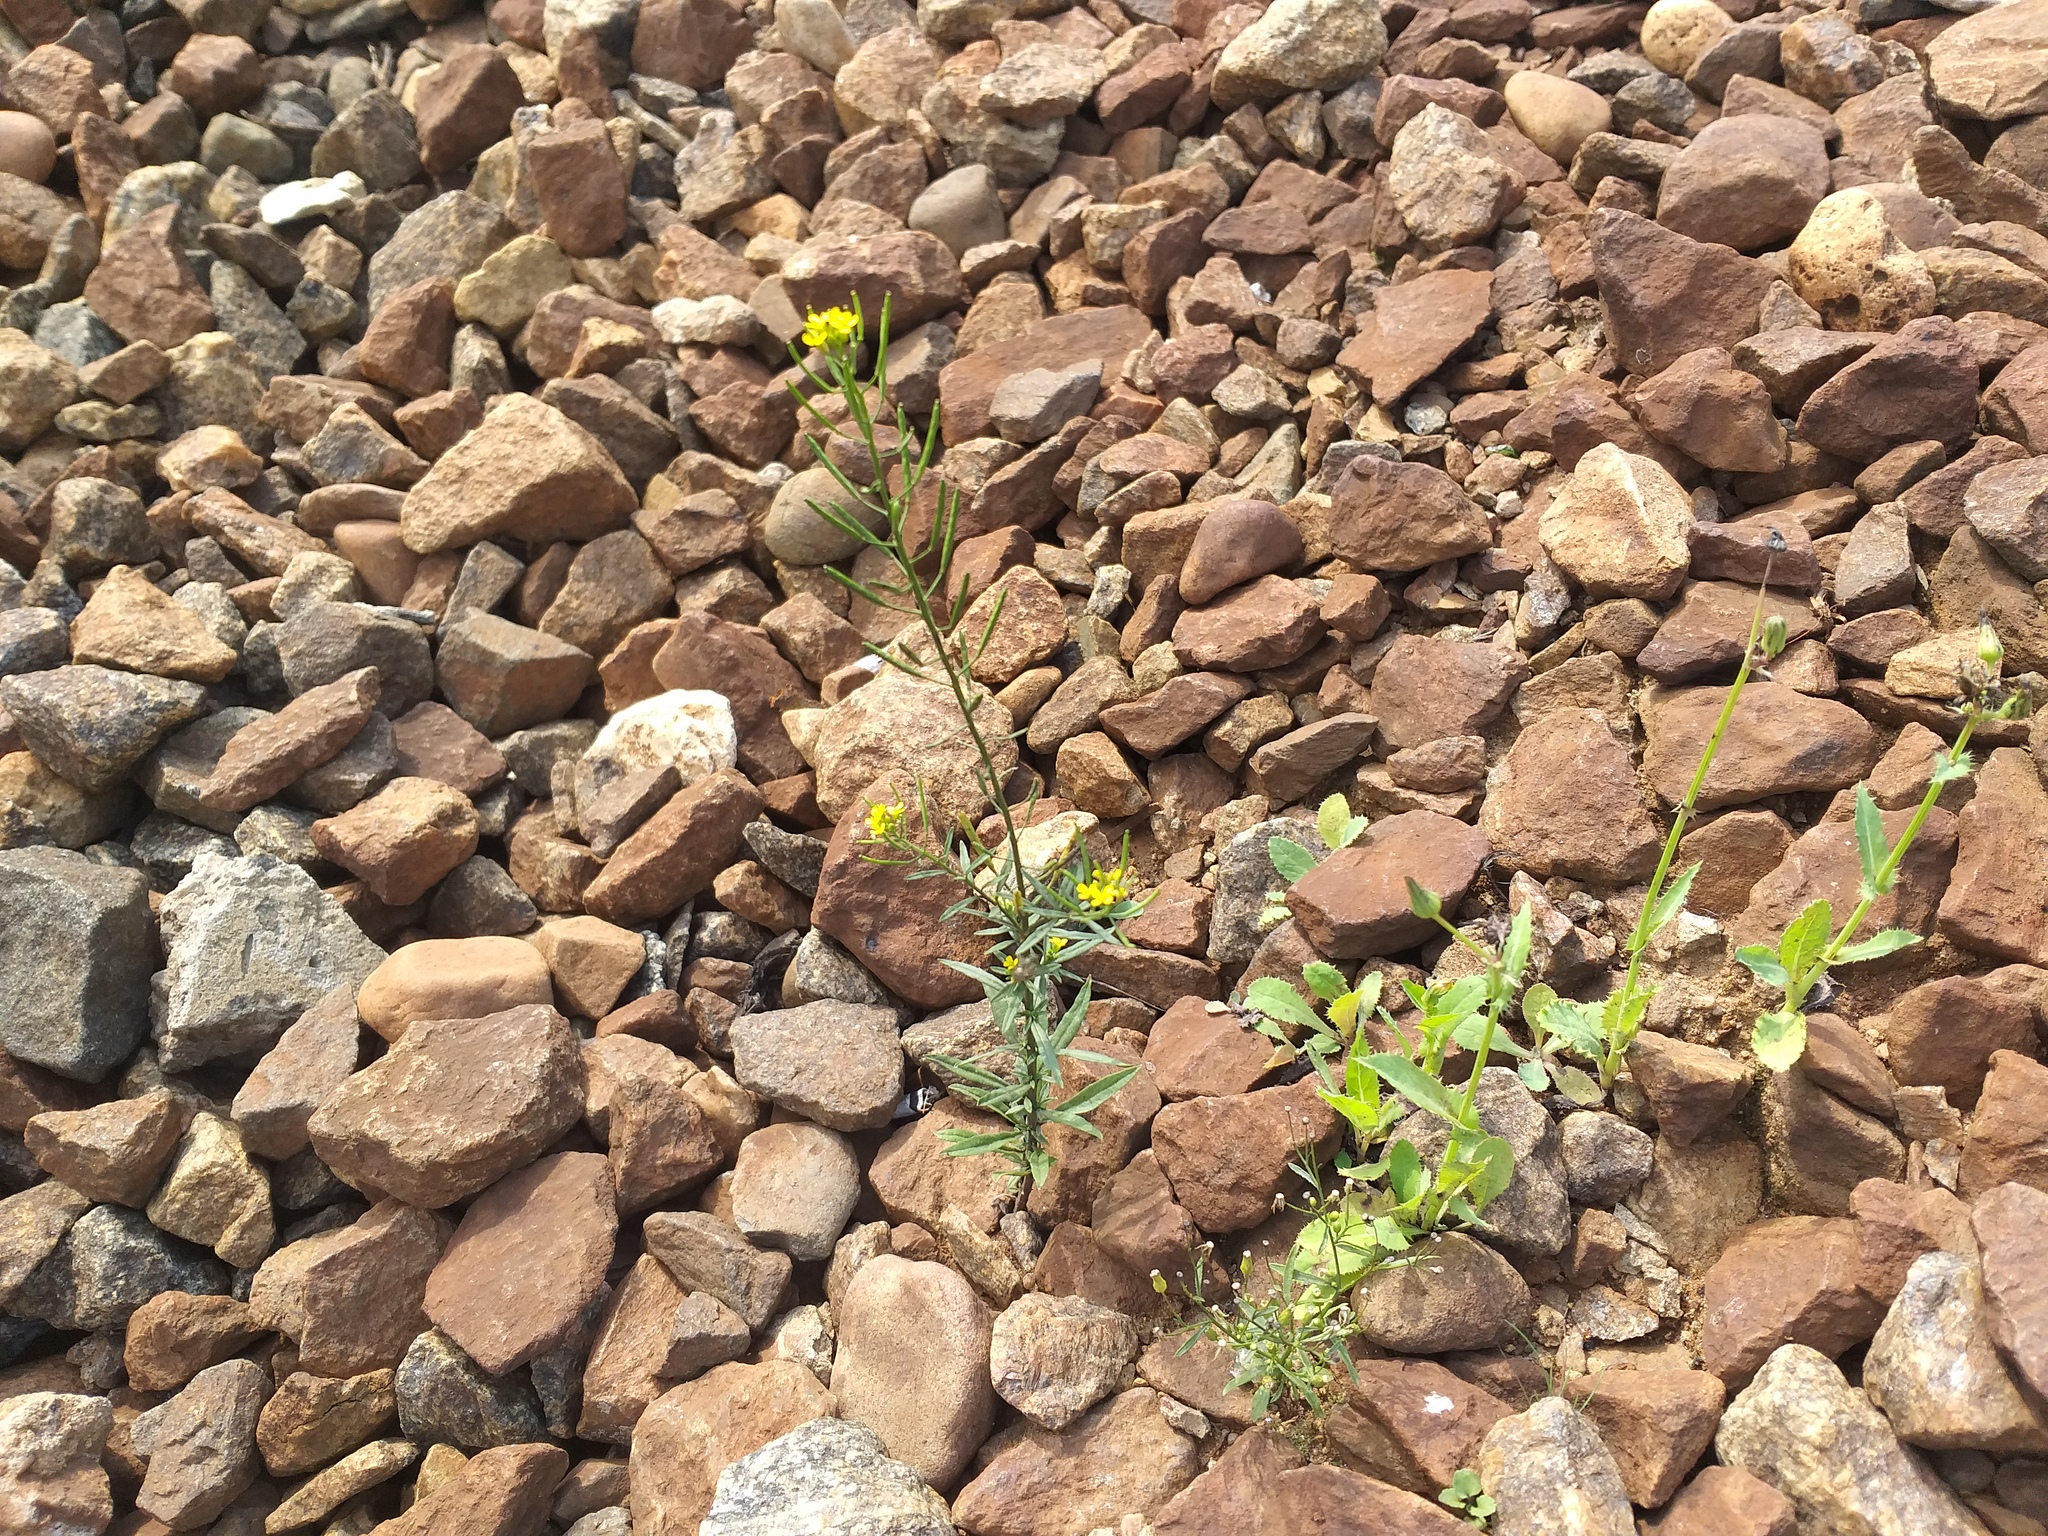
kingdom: Plantae
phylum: Tracheophyta
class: Magnoliopsida
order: Brassicales
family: Brassicaceae
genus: Erysimum
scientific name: Erysimum cheiranthoides
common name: Treacle mustard
